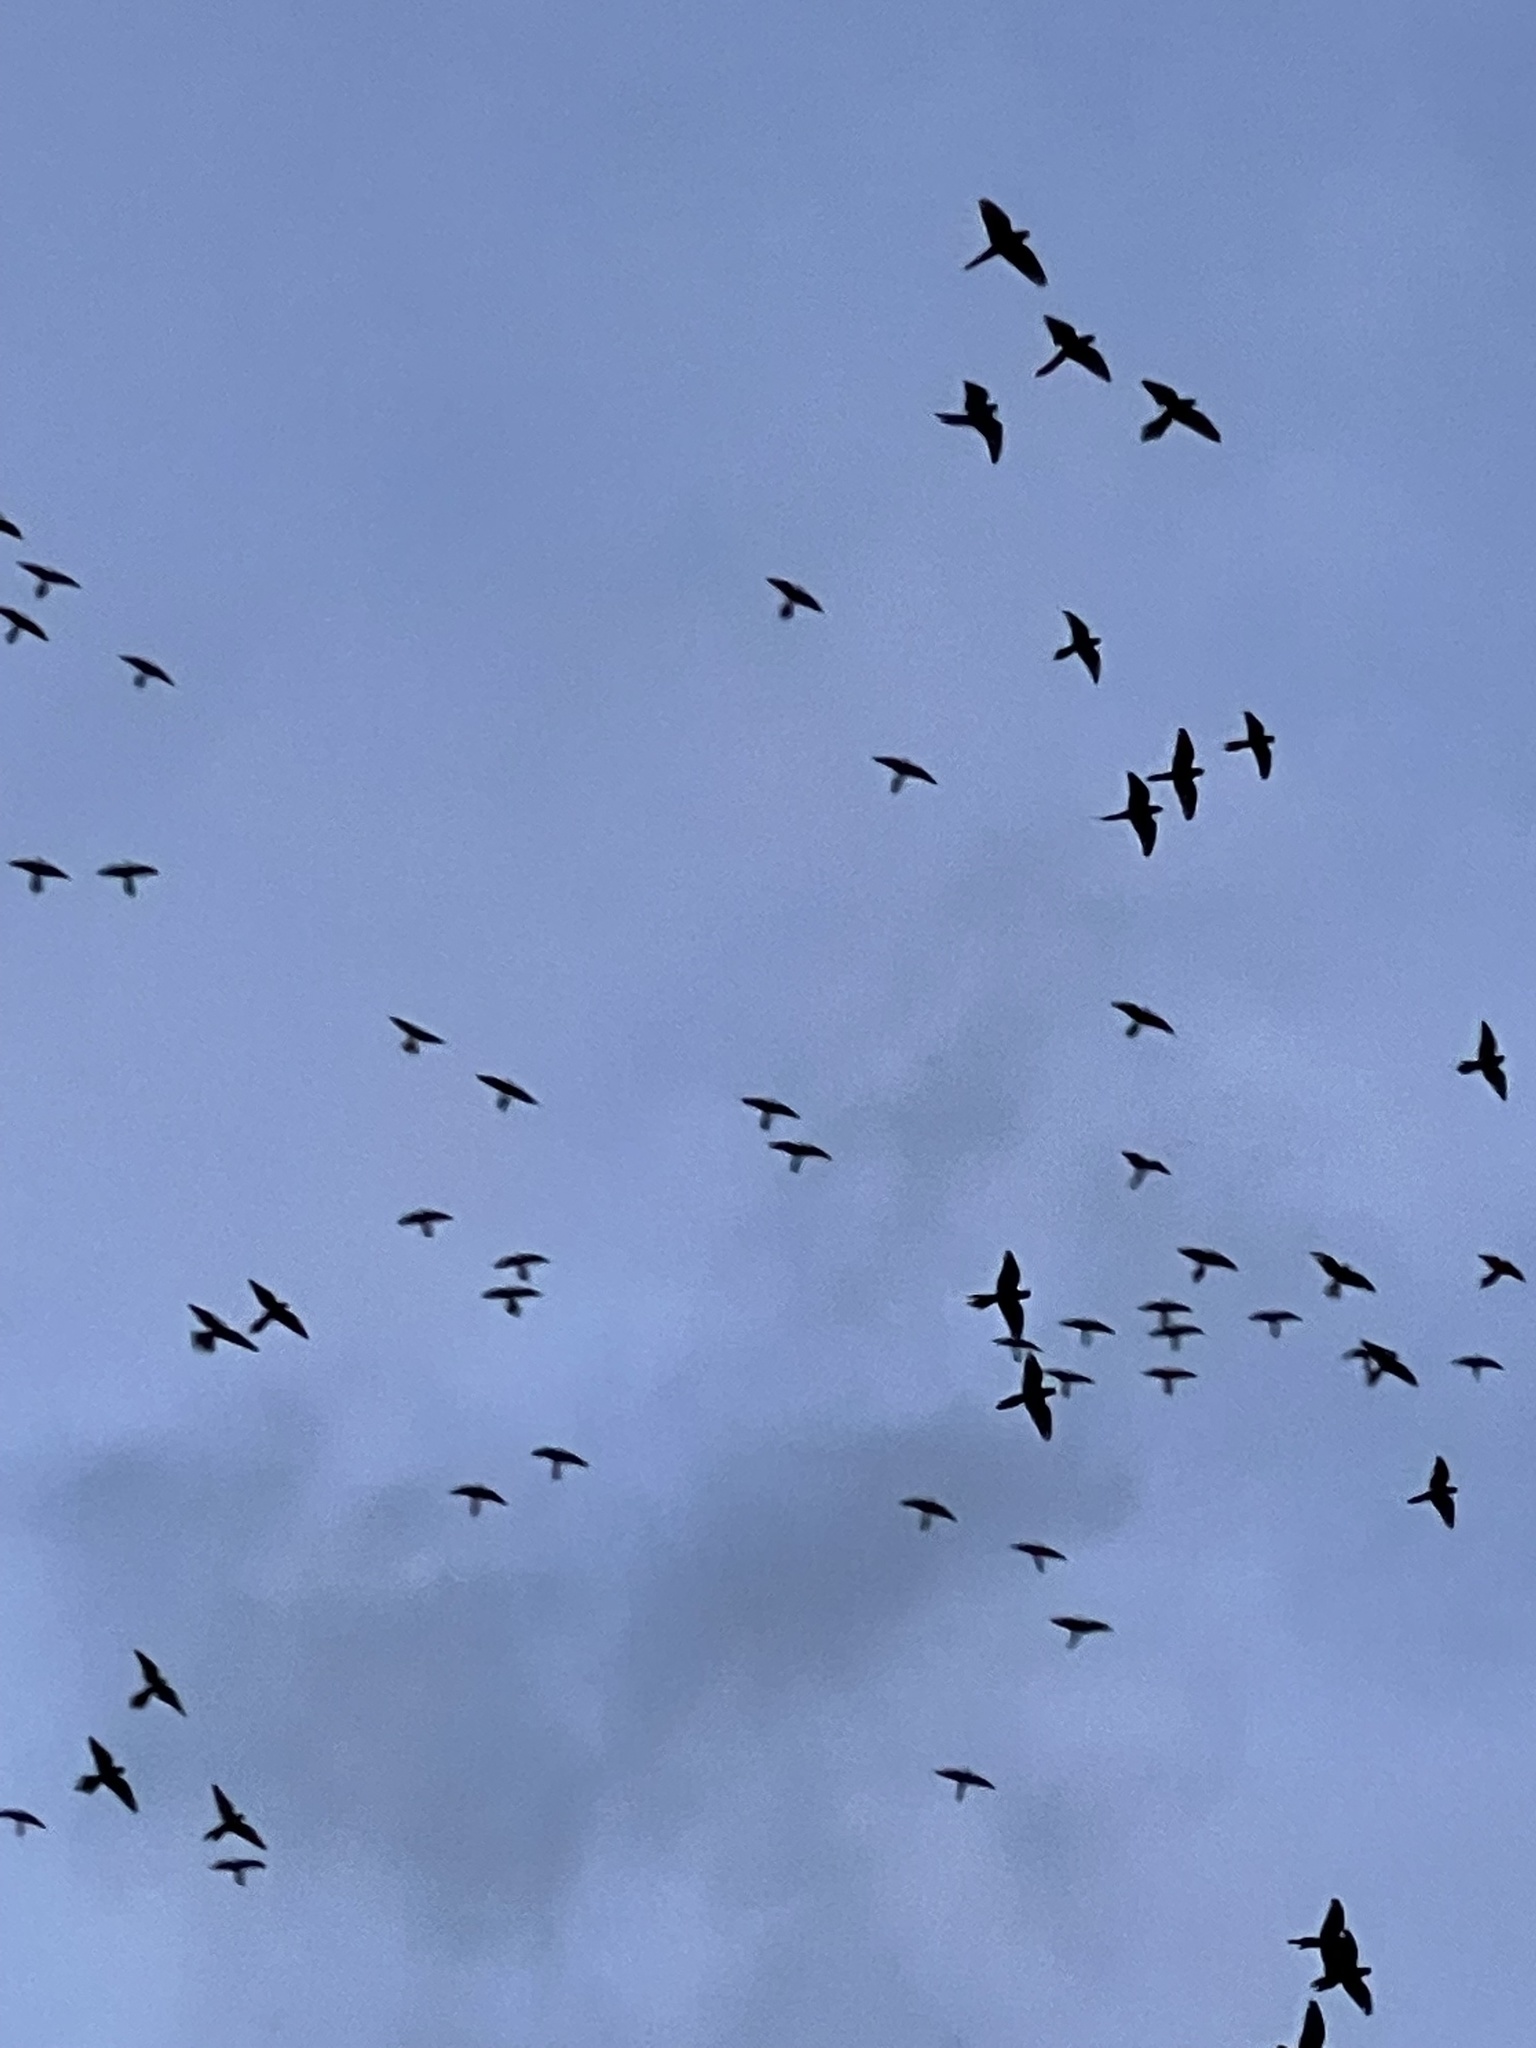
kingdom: Animalia
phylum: Chordata
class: Aves
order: Psittaciformes
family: Psittacidae
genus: Psittacara
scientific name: Psittacara
